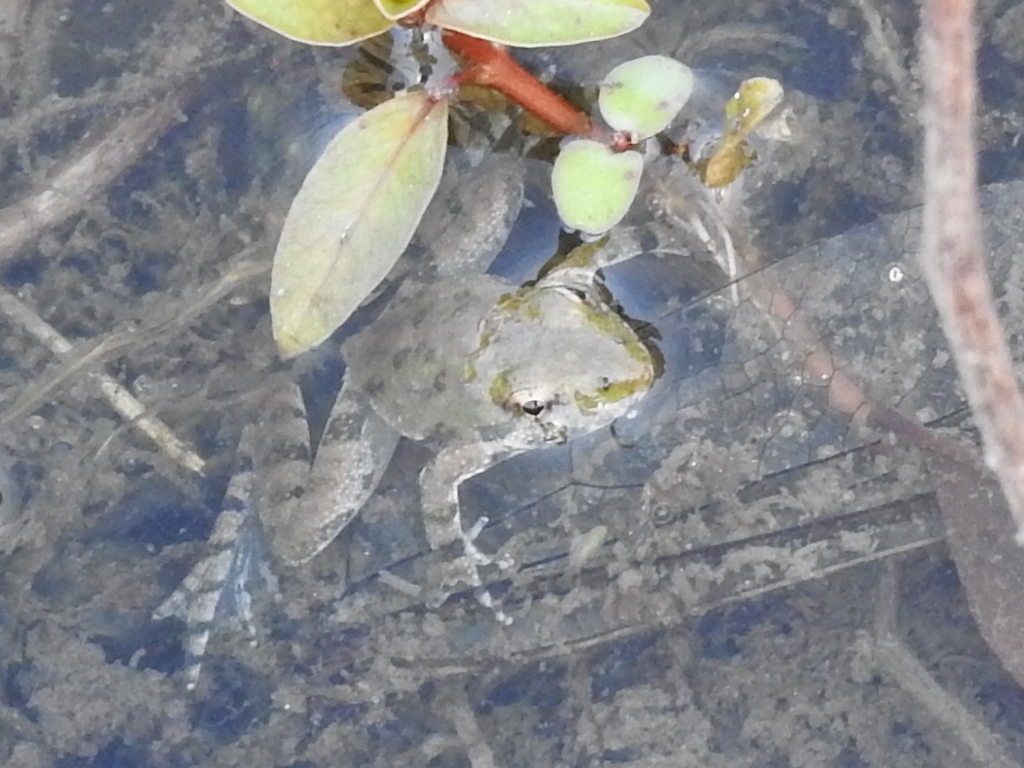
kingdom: Animalia
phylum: Chordata
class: Amphibia
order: Anura
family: Hylidae
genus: Acris
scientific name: Acris blanchardi
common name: Blanchard's cricket frog
